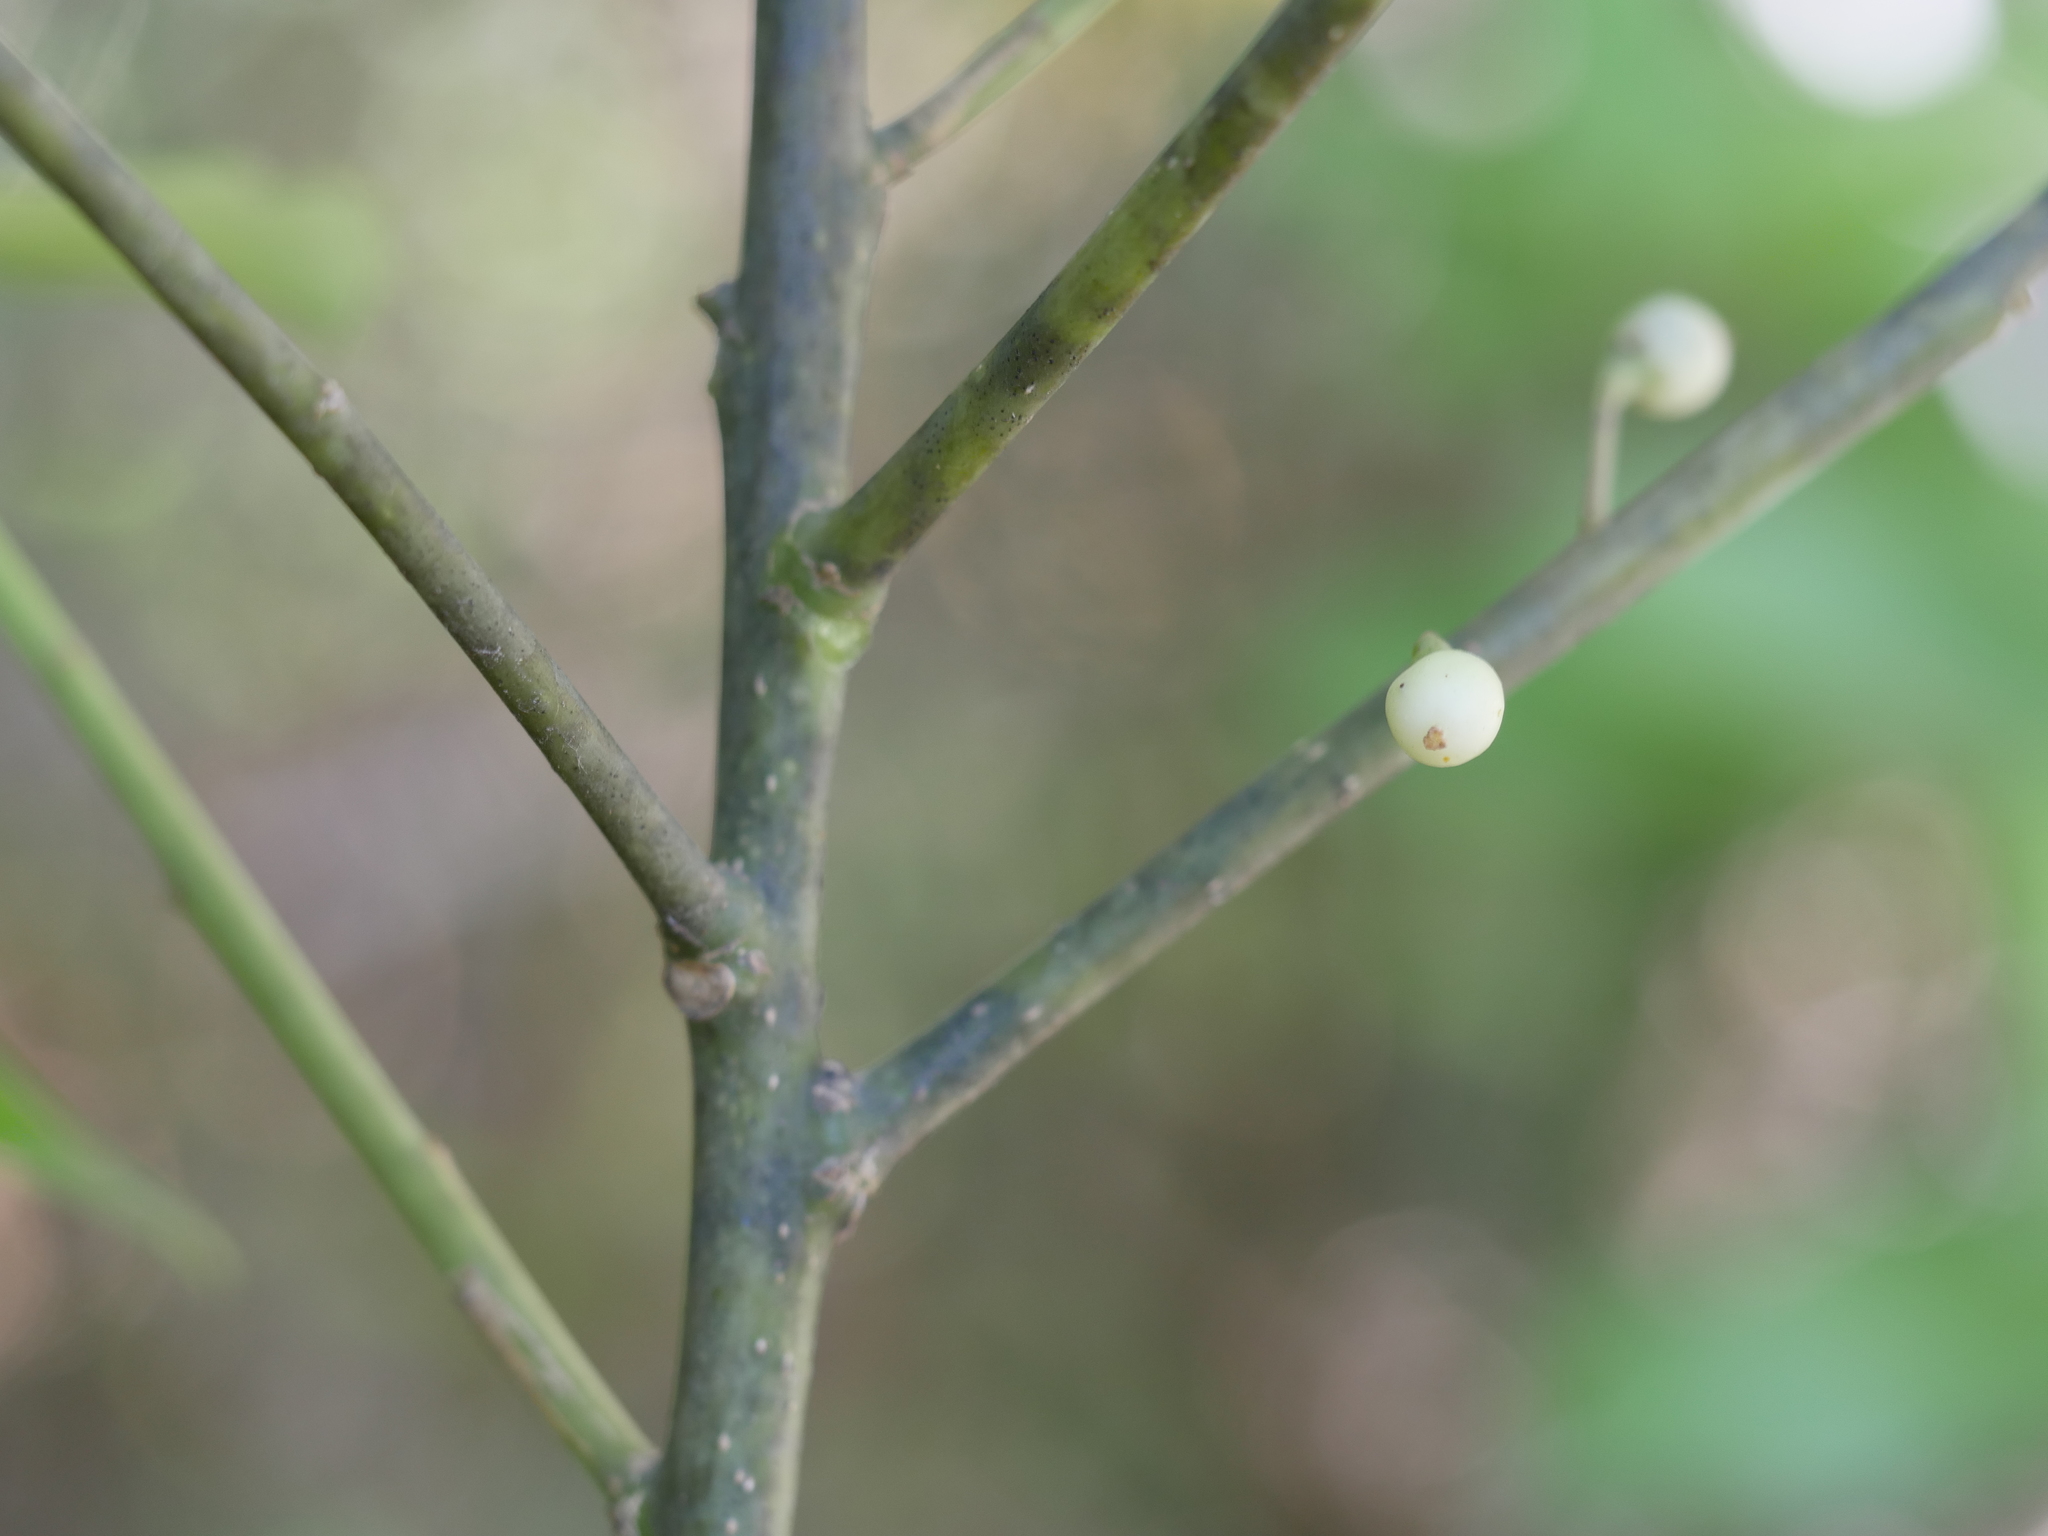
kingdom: Plantae
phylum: Tracheophyta
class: Magnoliopsida
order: Malpighiales
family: Violaceae
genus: Melicytus
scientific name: Melicytus macrophyllus
